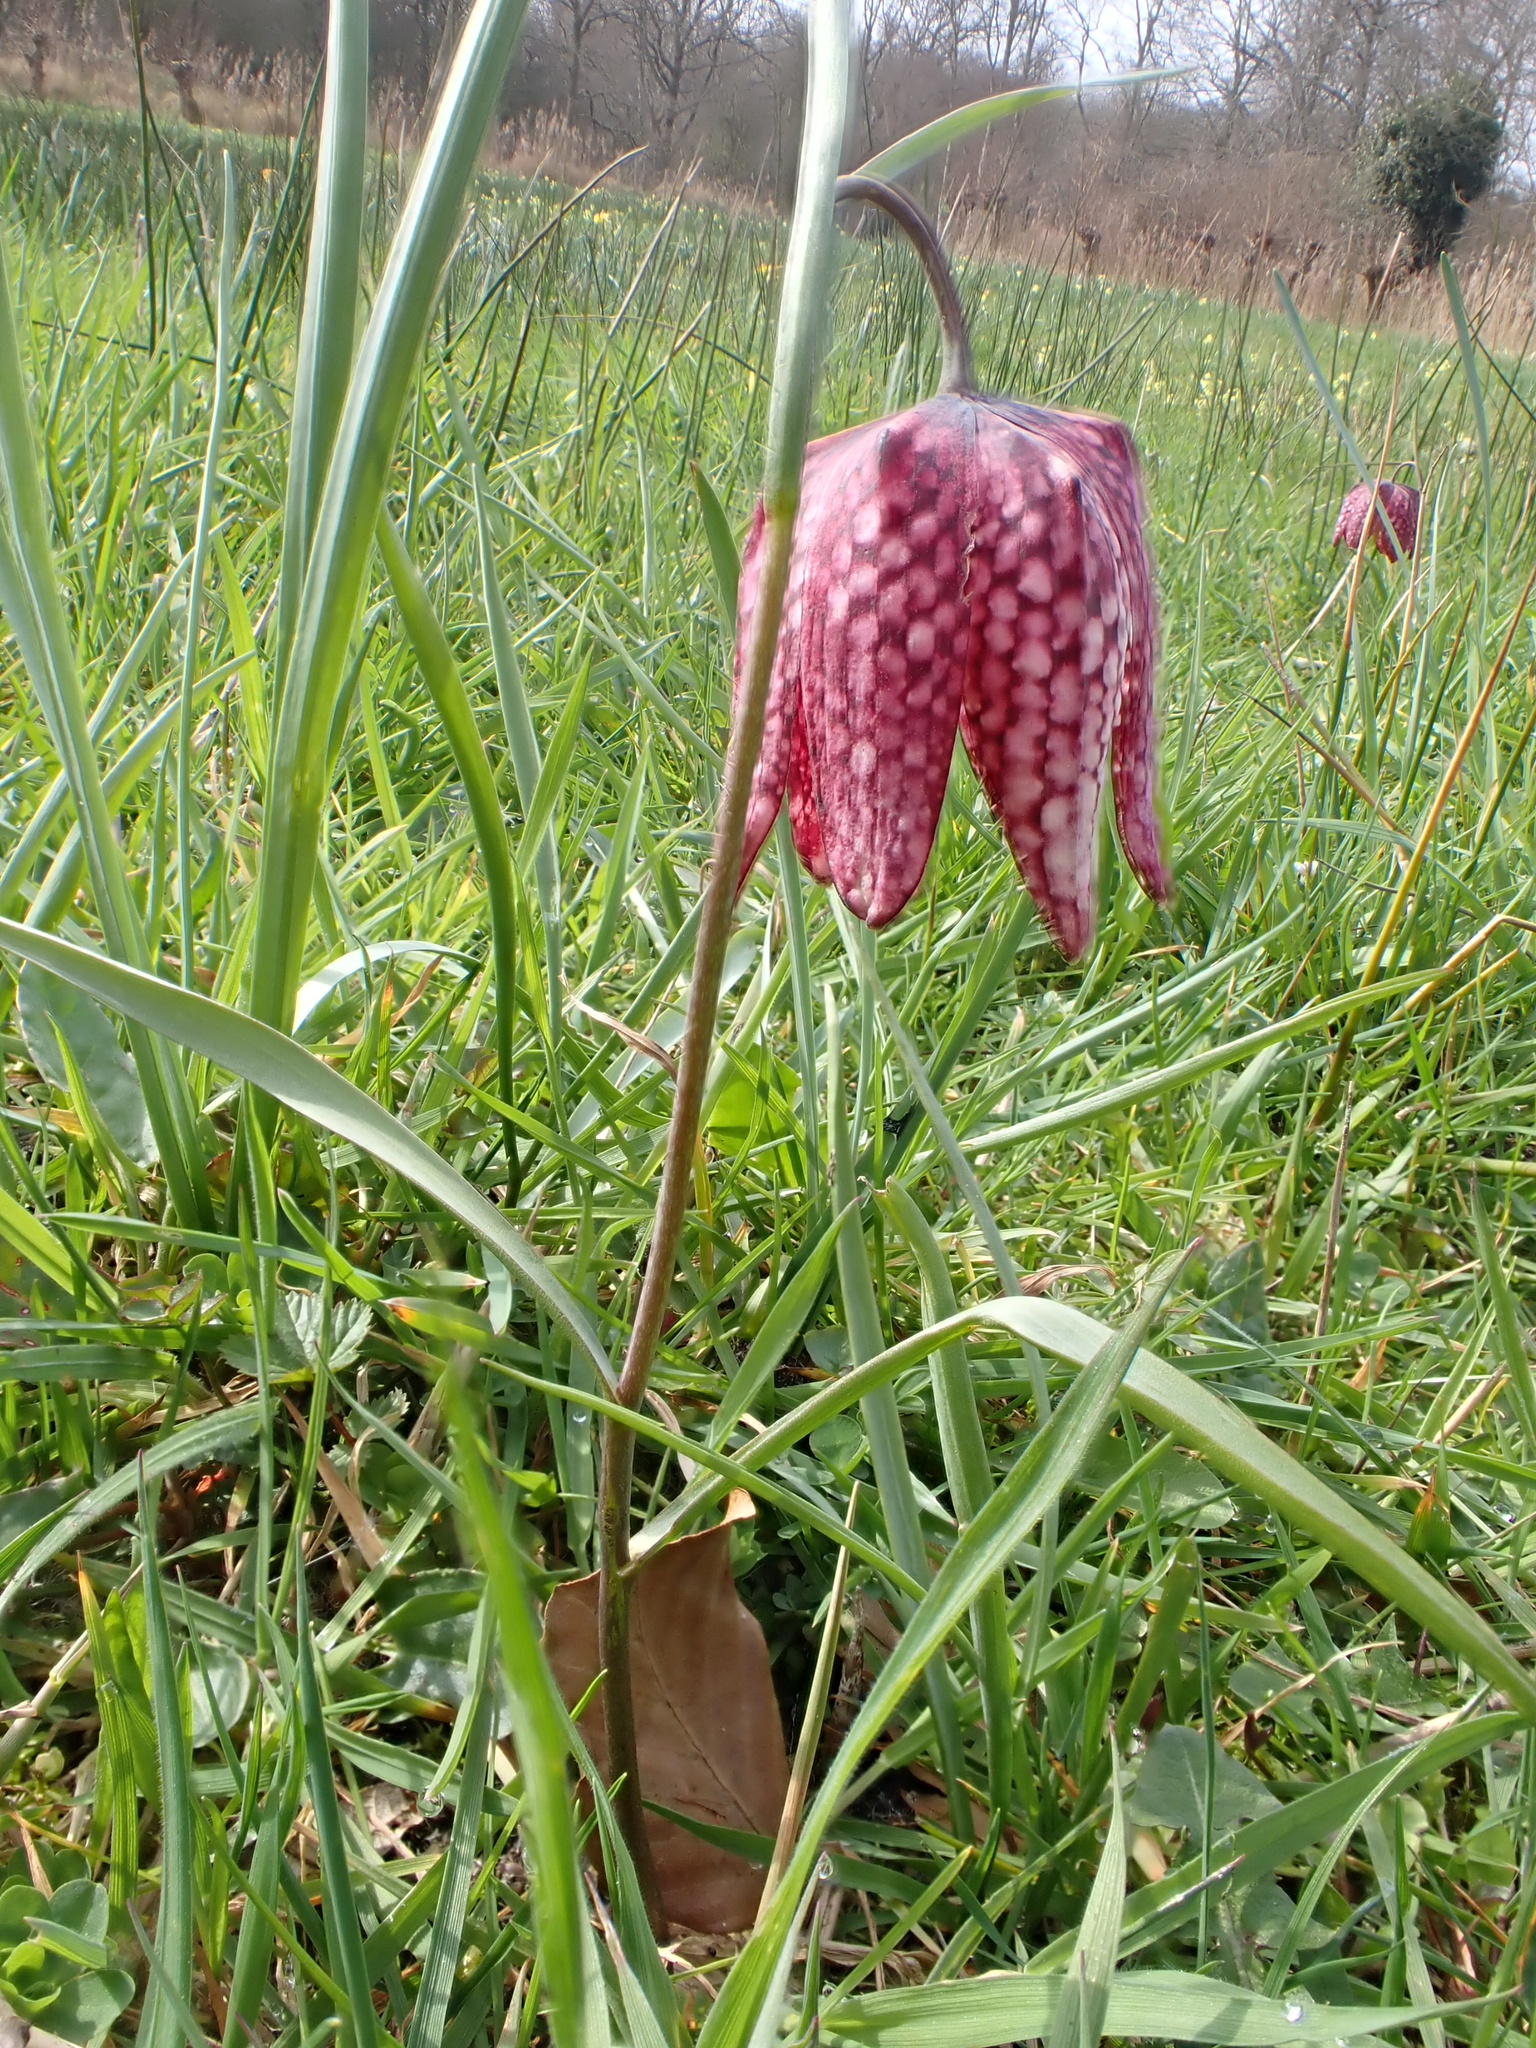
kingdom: Plantae
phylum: Tracheophyta
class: Liliopsida
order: Liliales
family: Liliaceae
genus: Fritillaria
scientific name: Fritillaria meleagris
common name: Fritillary
